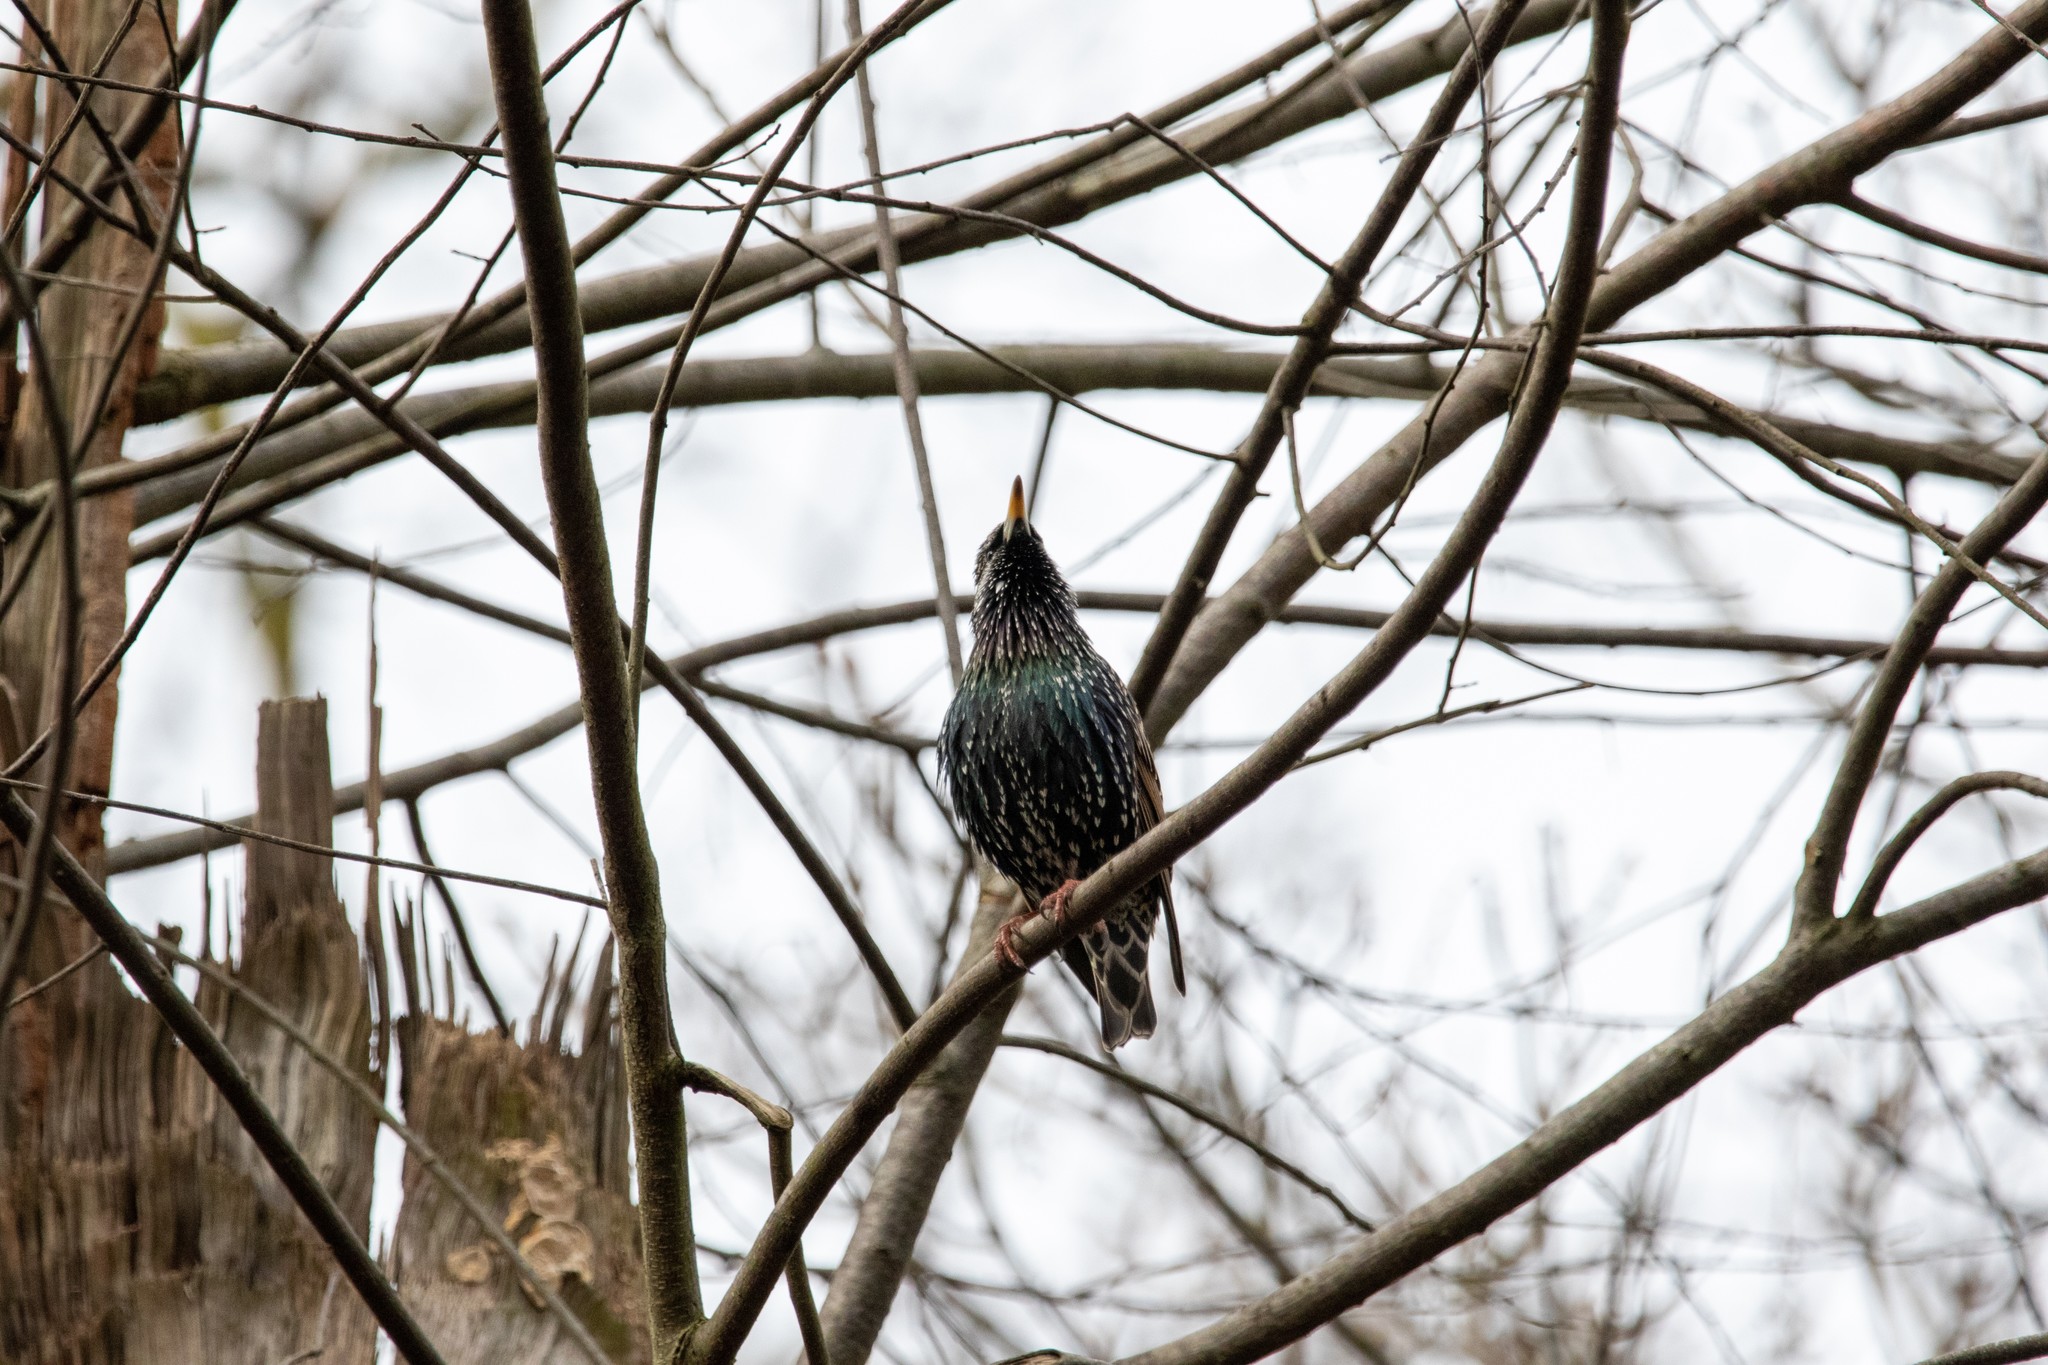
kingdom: Animalia
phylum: Chordata
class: Aves
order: Passeriformes
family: Sturnidae
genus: Sturnus
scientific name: Sturnus vulgaris
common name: Common starling
